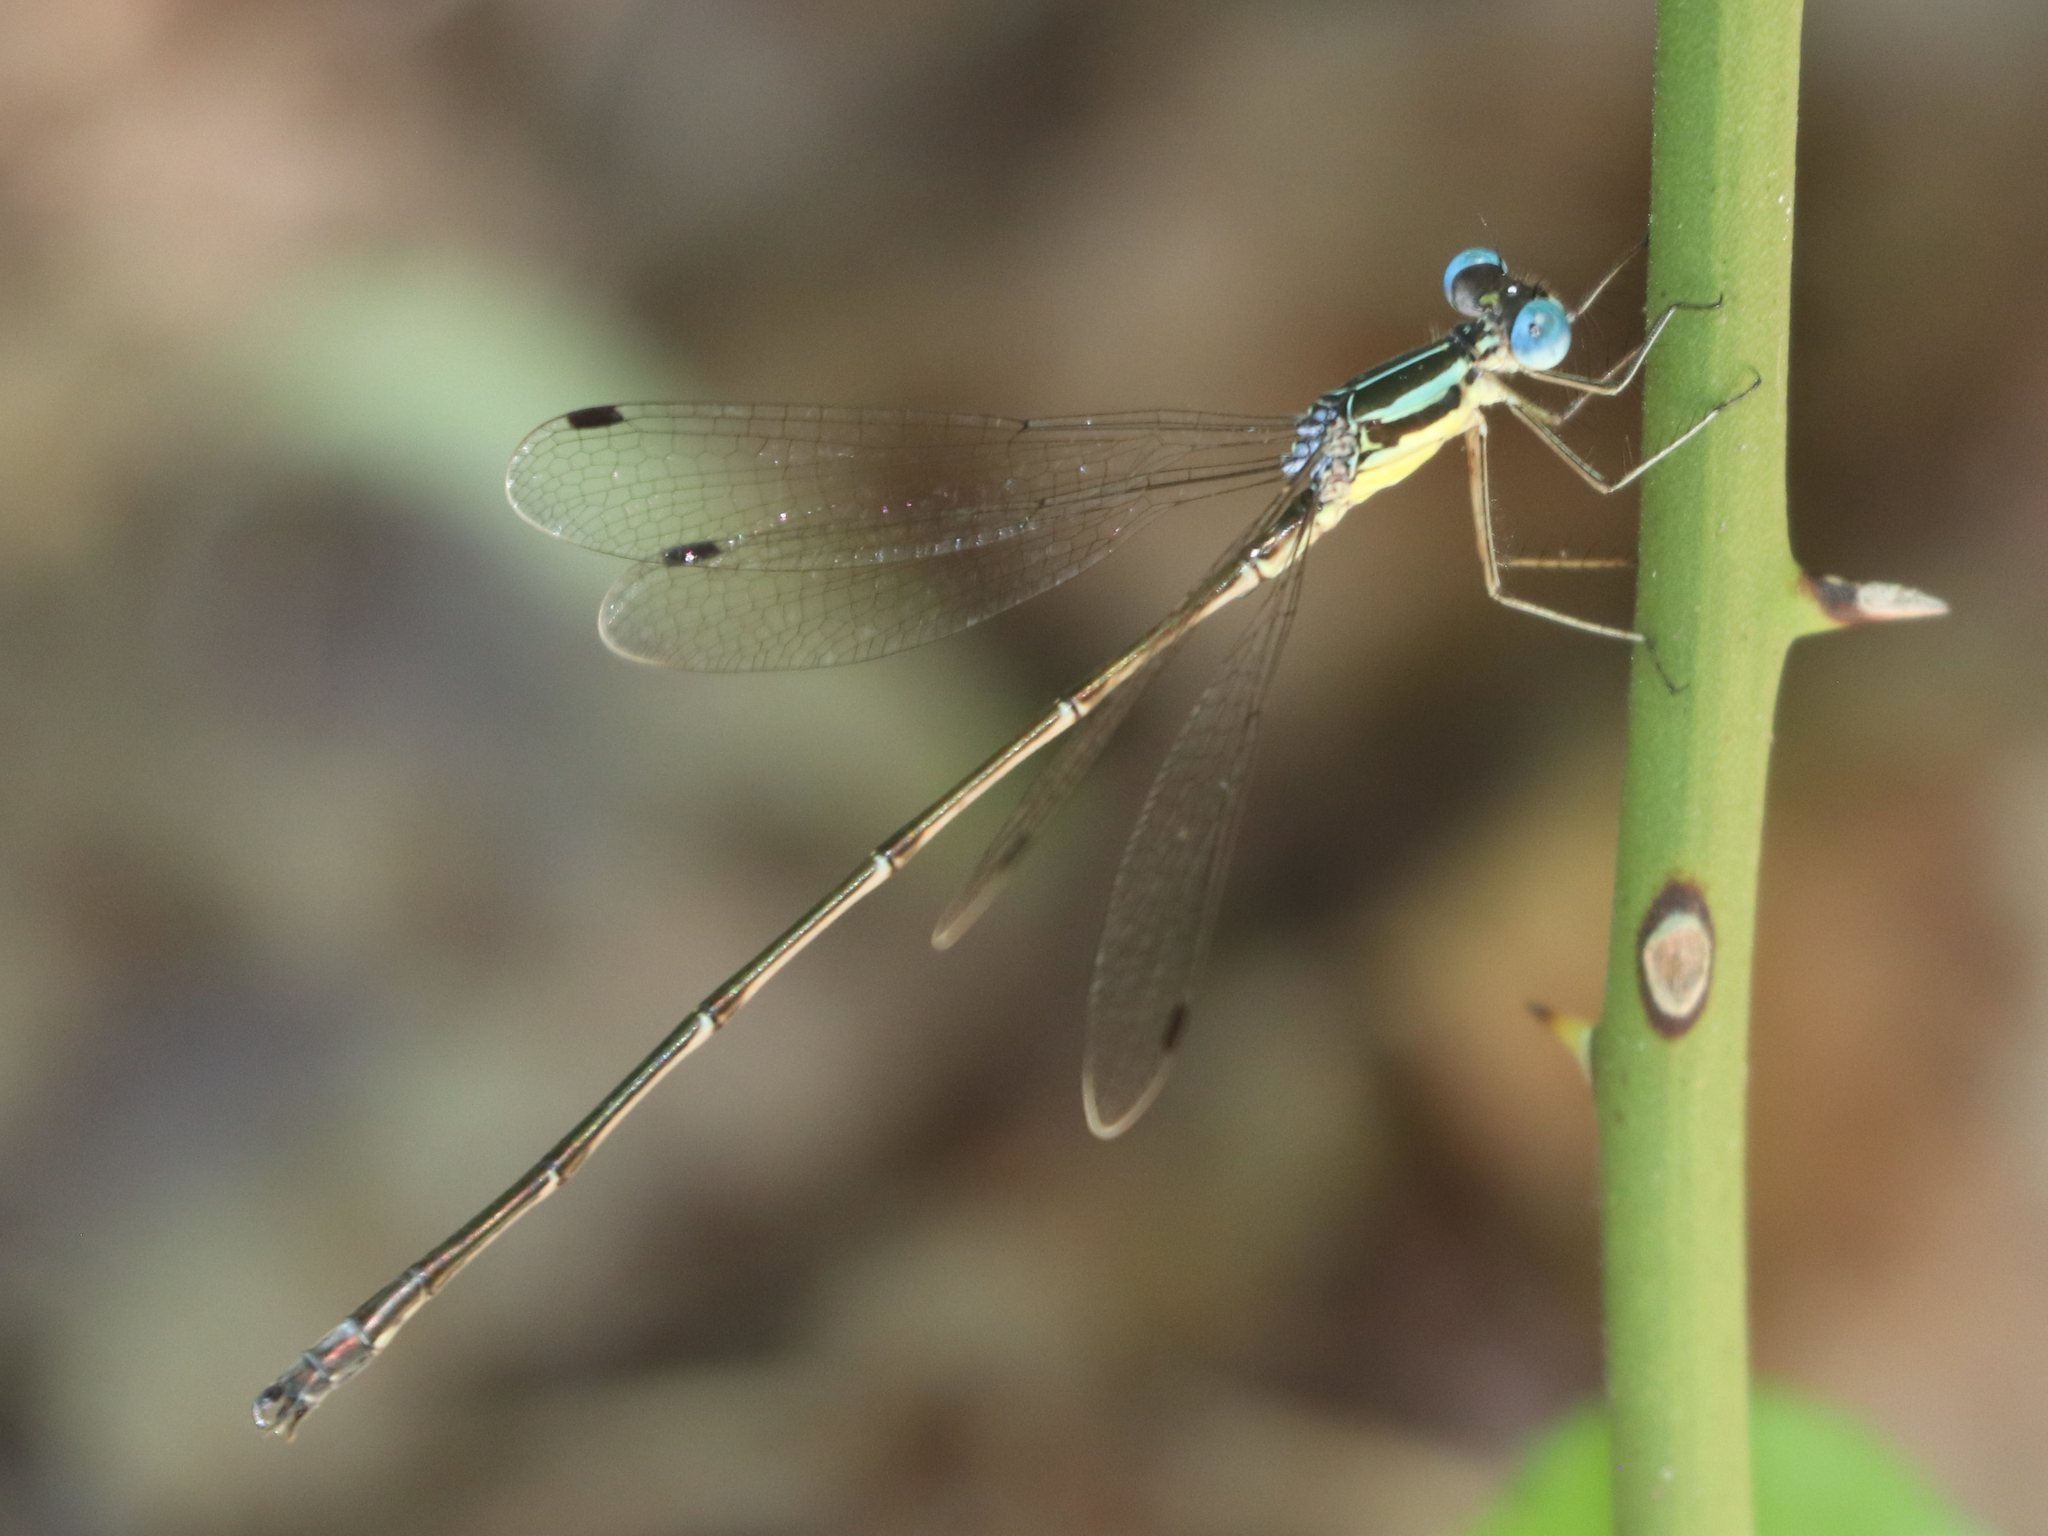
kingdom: Animalia
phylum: Arthropoda
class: Insecta
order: Odonata
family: Lestidae
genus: Lestes
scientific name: Lestes rectangularis
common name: Slender spreadwing
